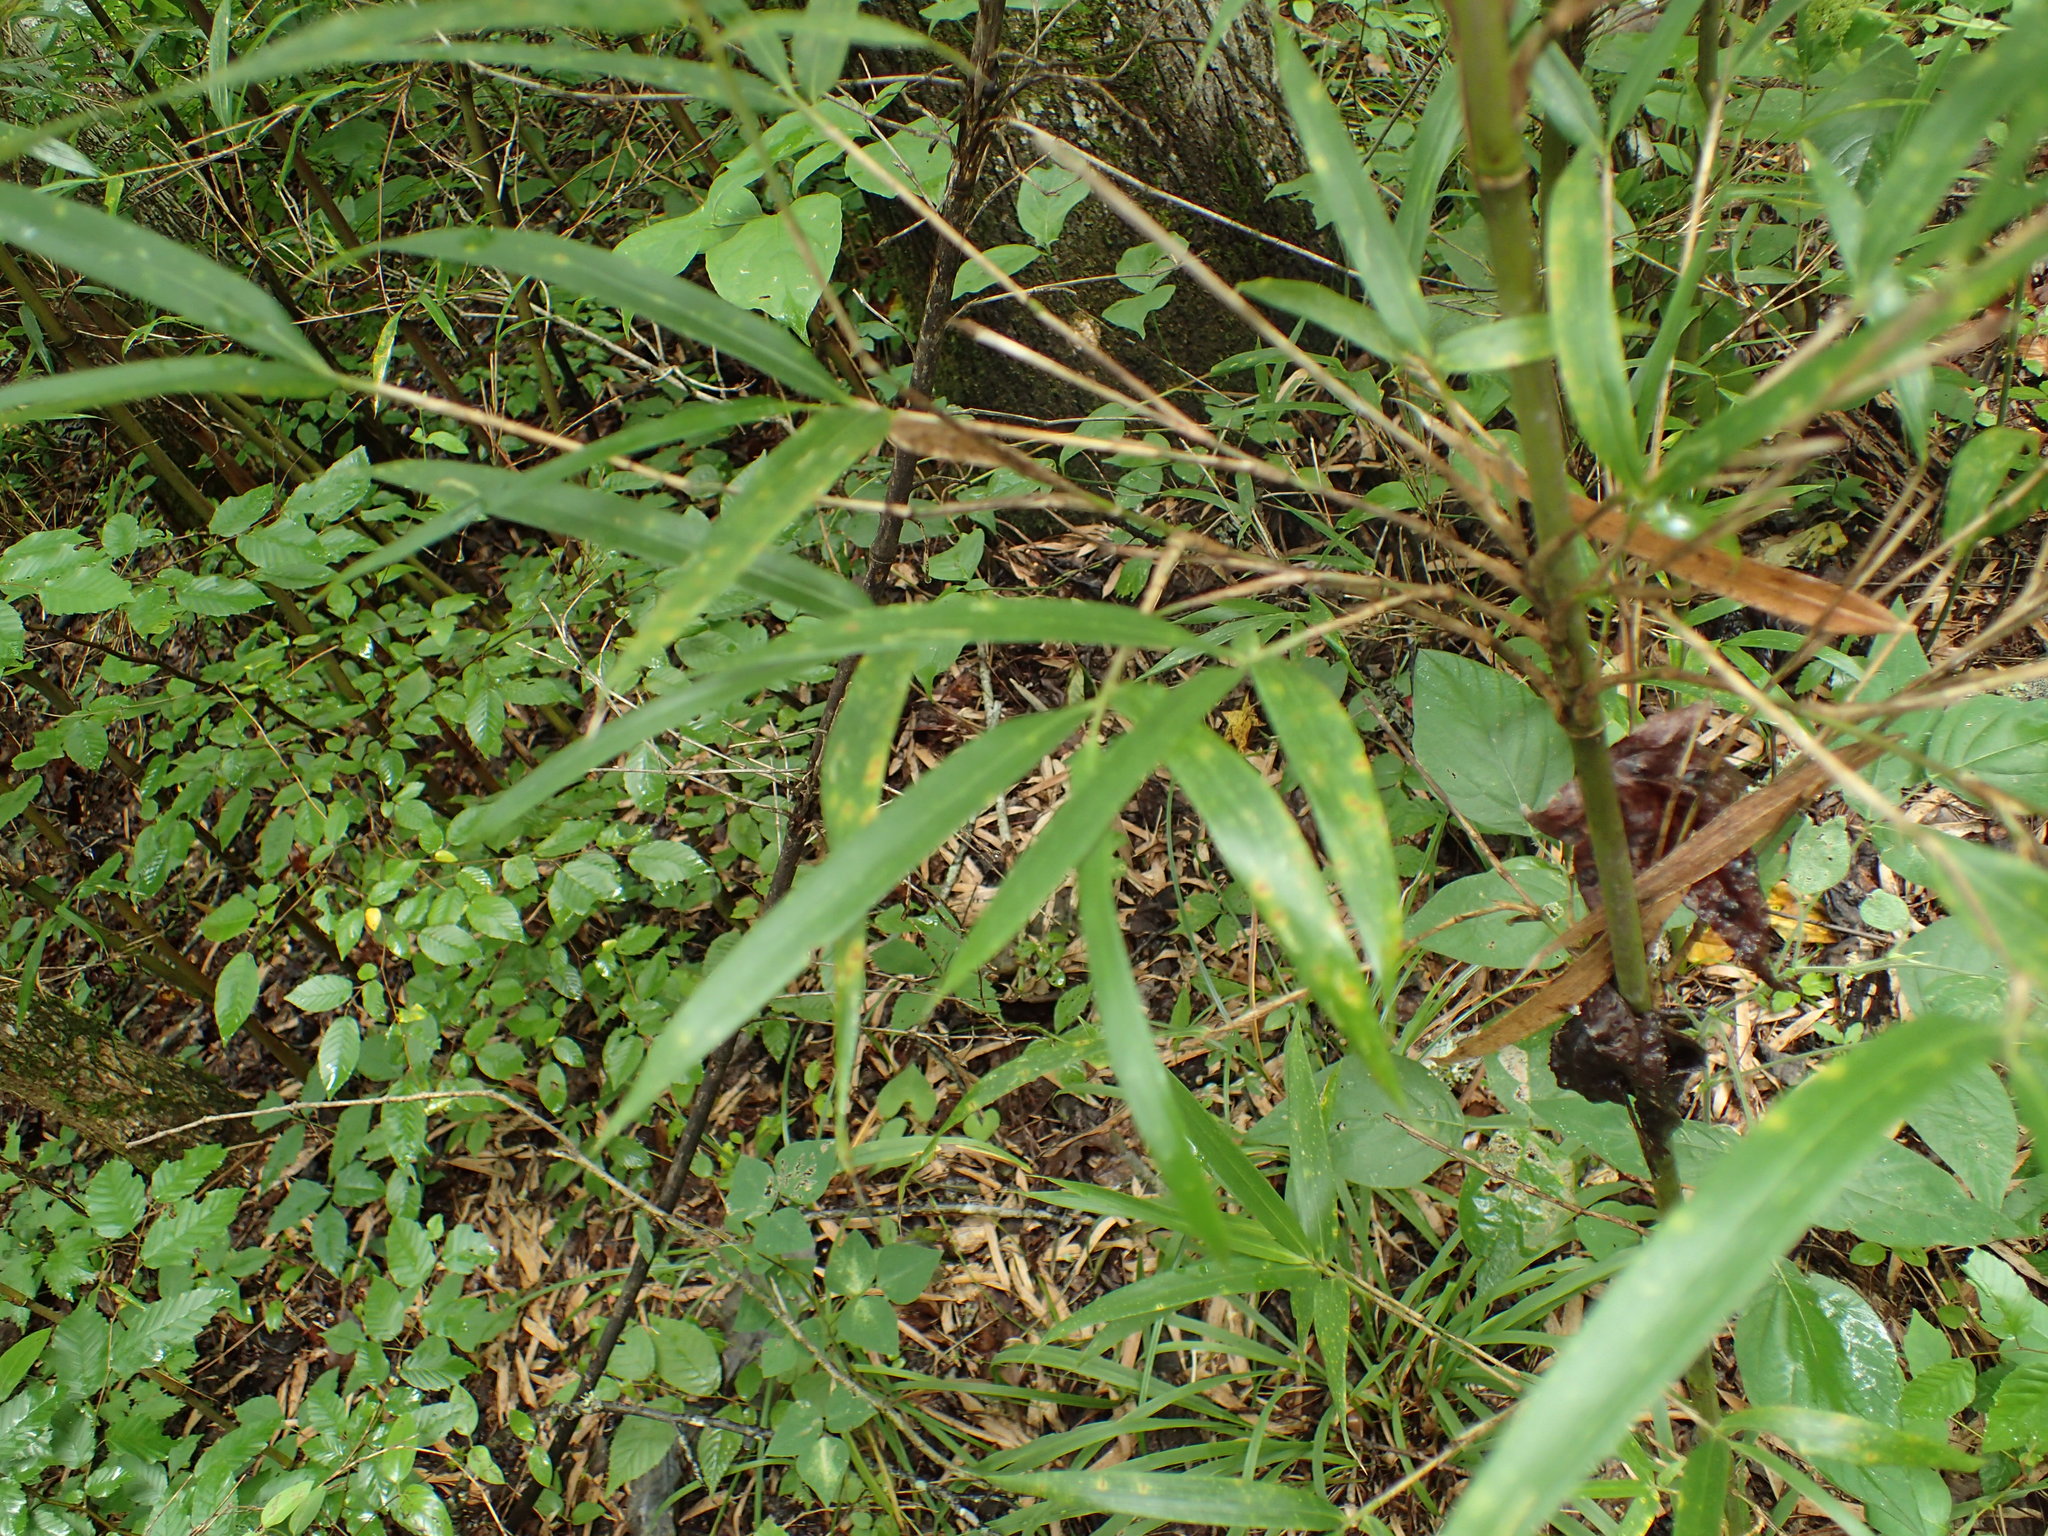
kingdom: Plantae
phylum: Tracheophyta
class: Liliopsida
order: Poales
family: Poaceae
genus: Arundinaria
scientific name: Arundinaria gigantea
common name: Giant cane
